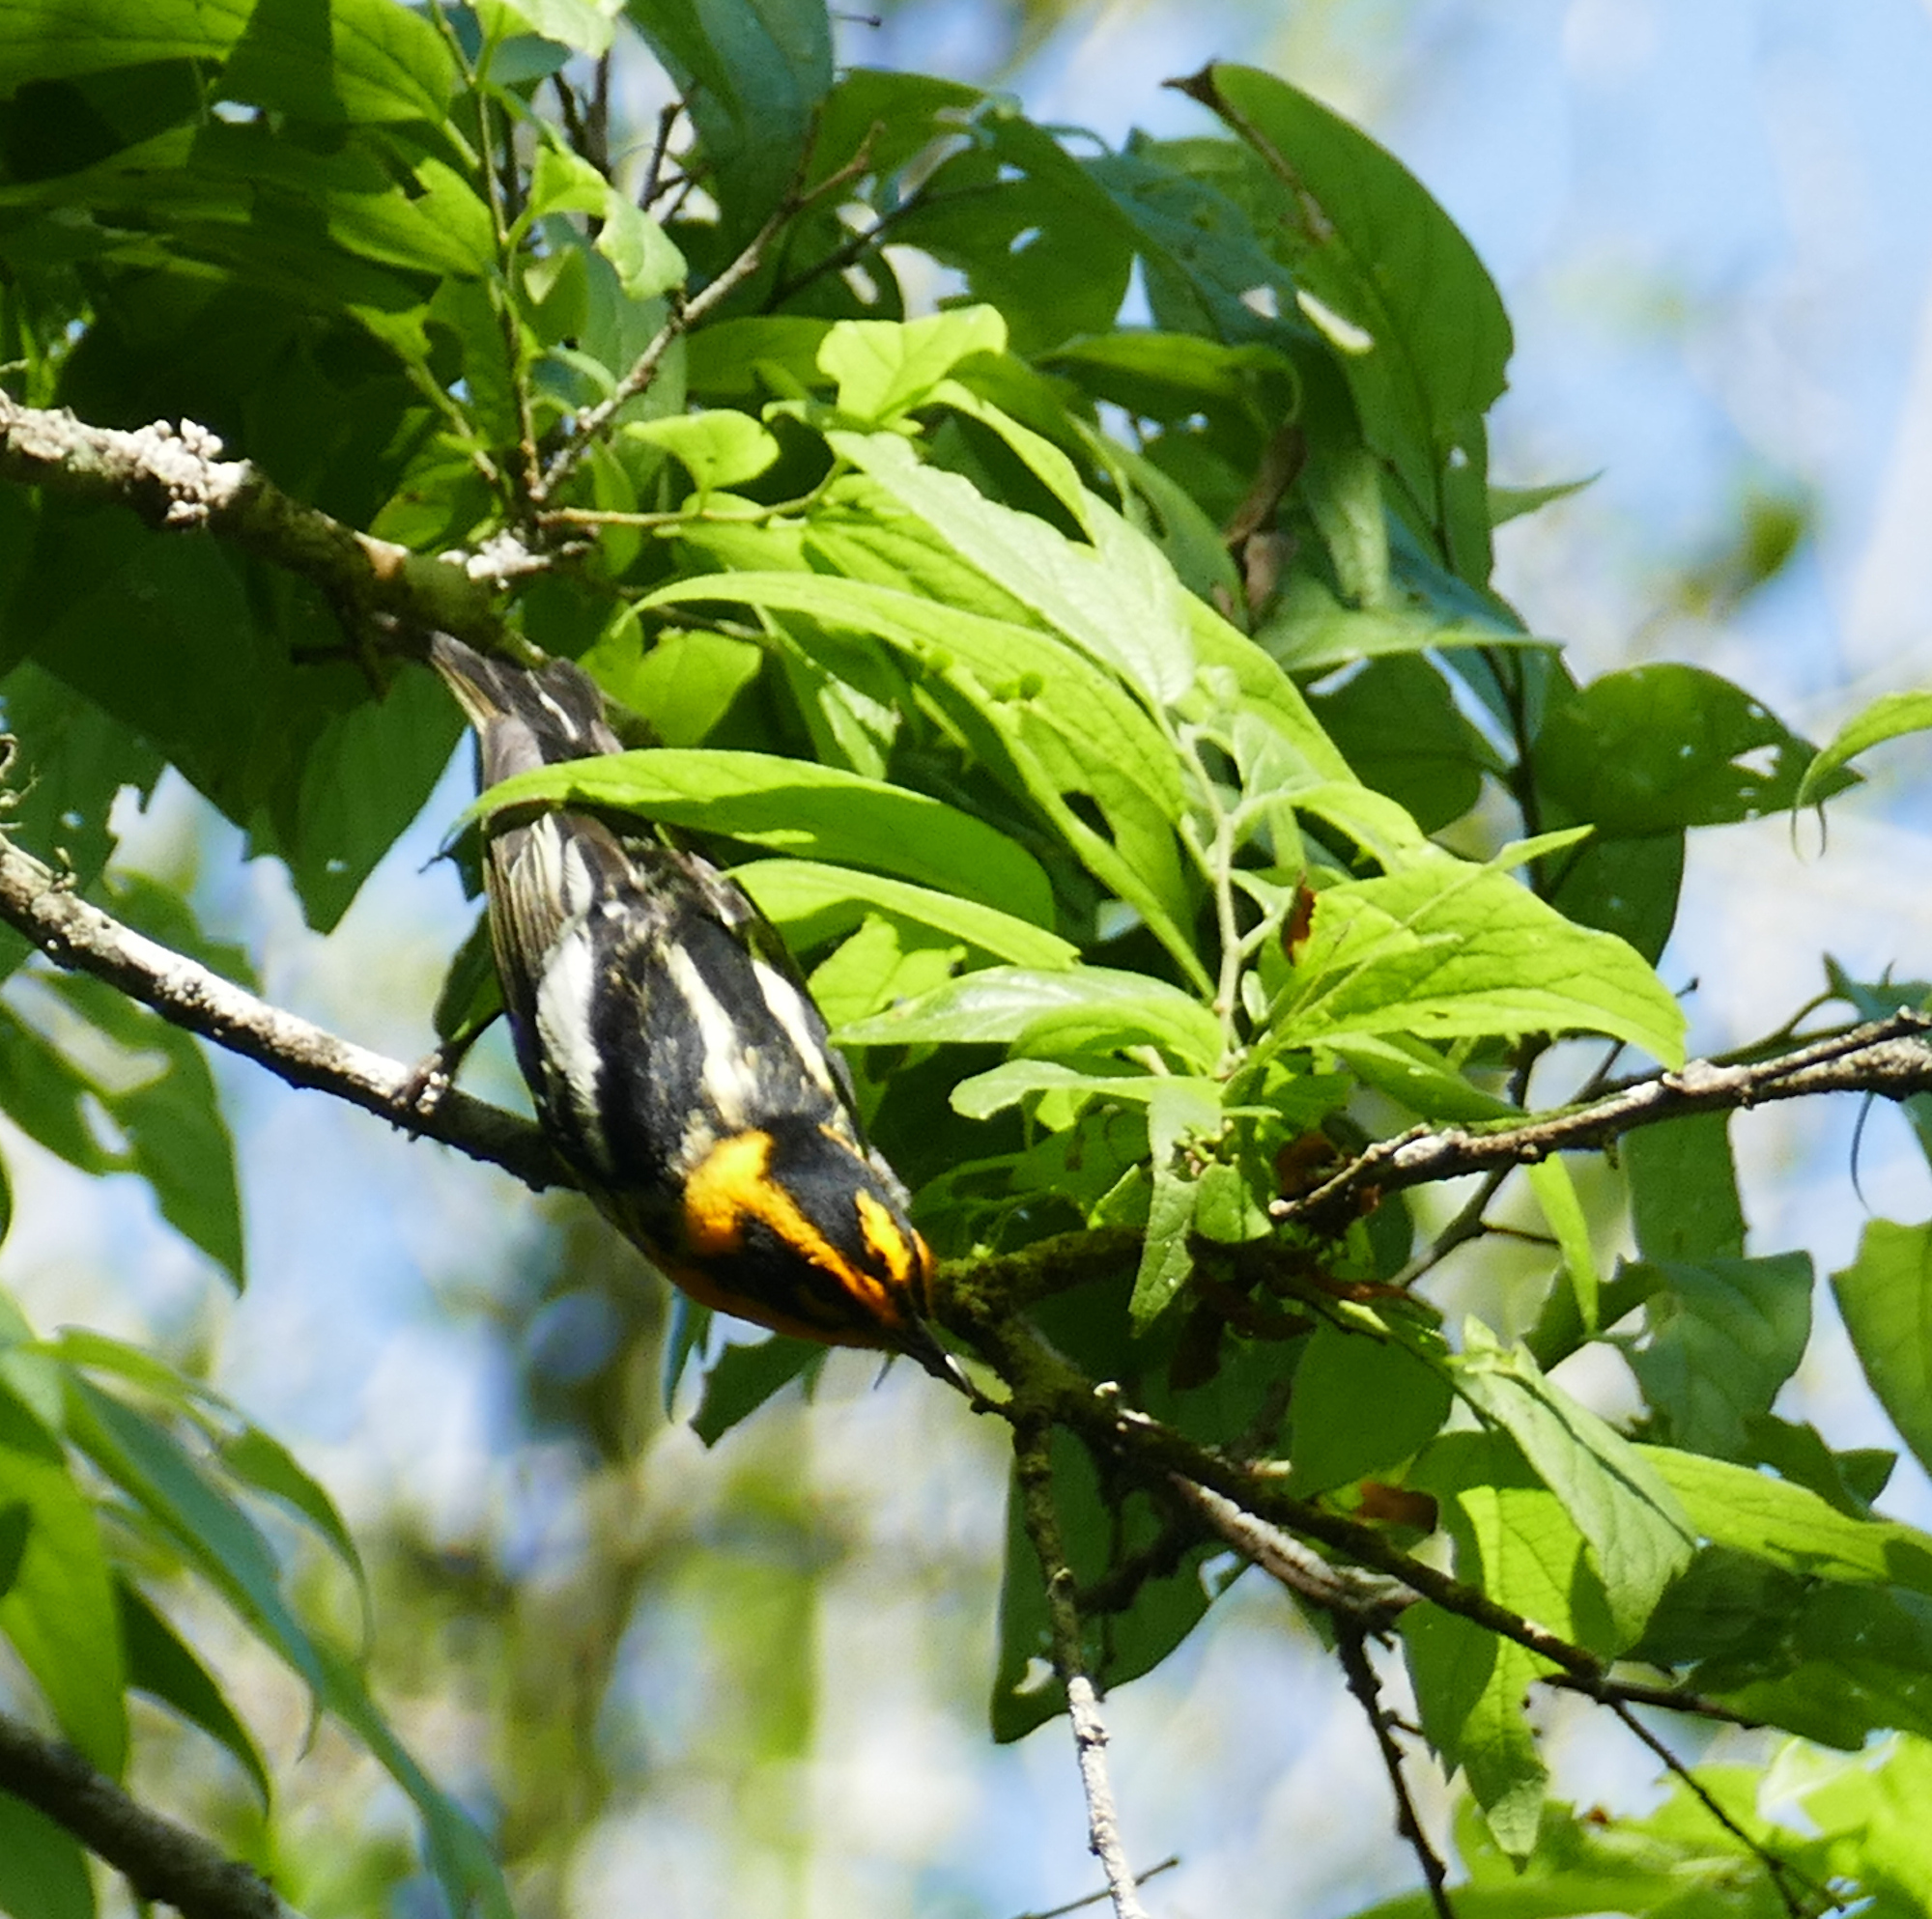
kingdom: Animalia
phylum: Chordata
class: Aves
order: Passeriformes
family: Parulidae
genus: Setophaga
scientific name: Setophaga fusca
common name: Blackburnian warbler
